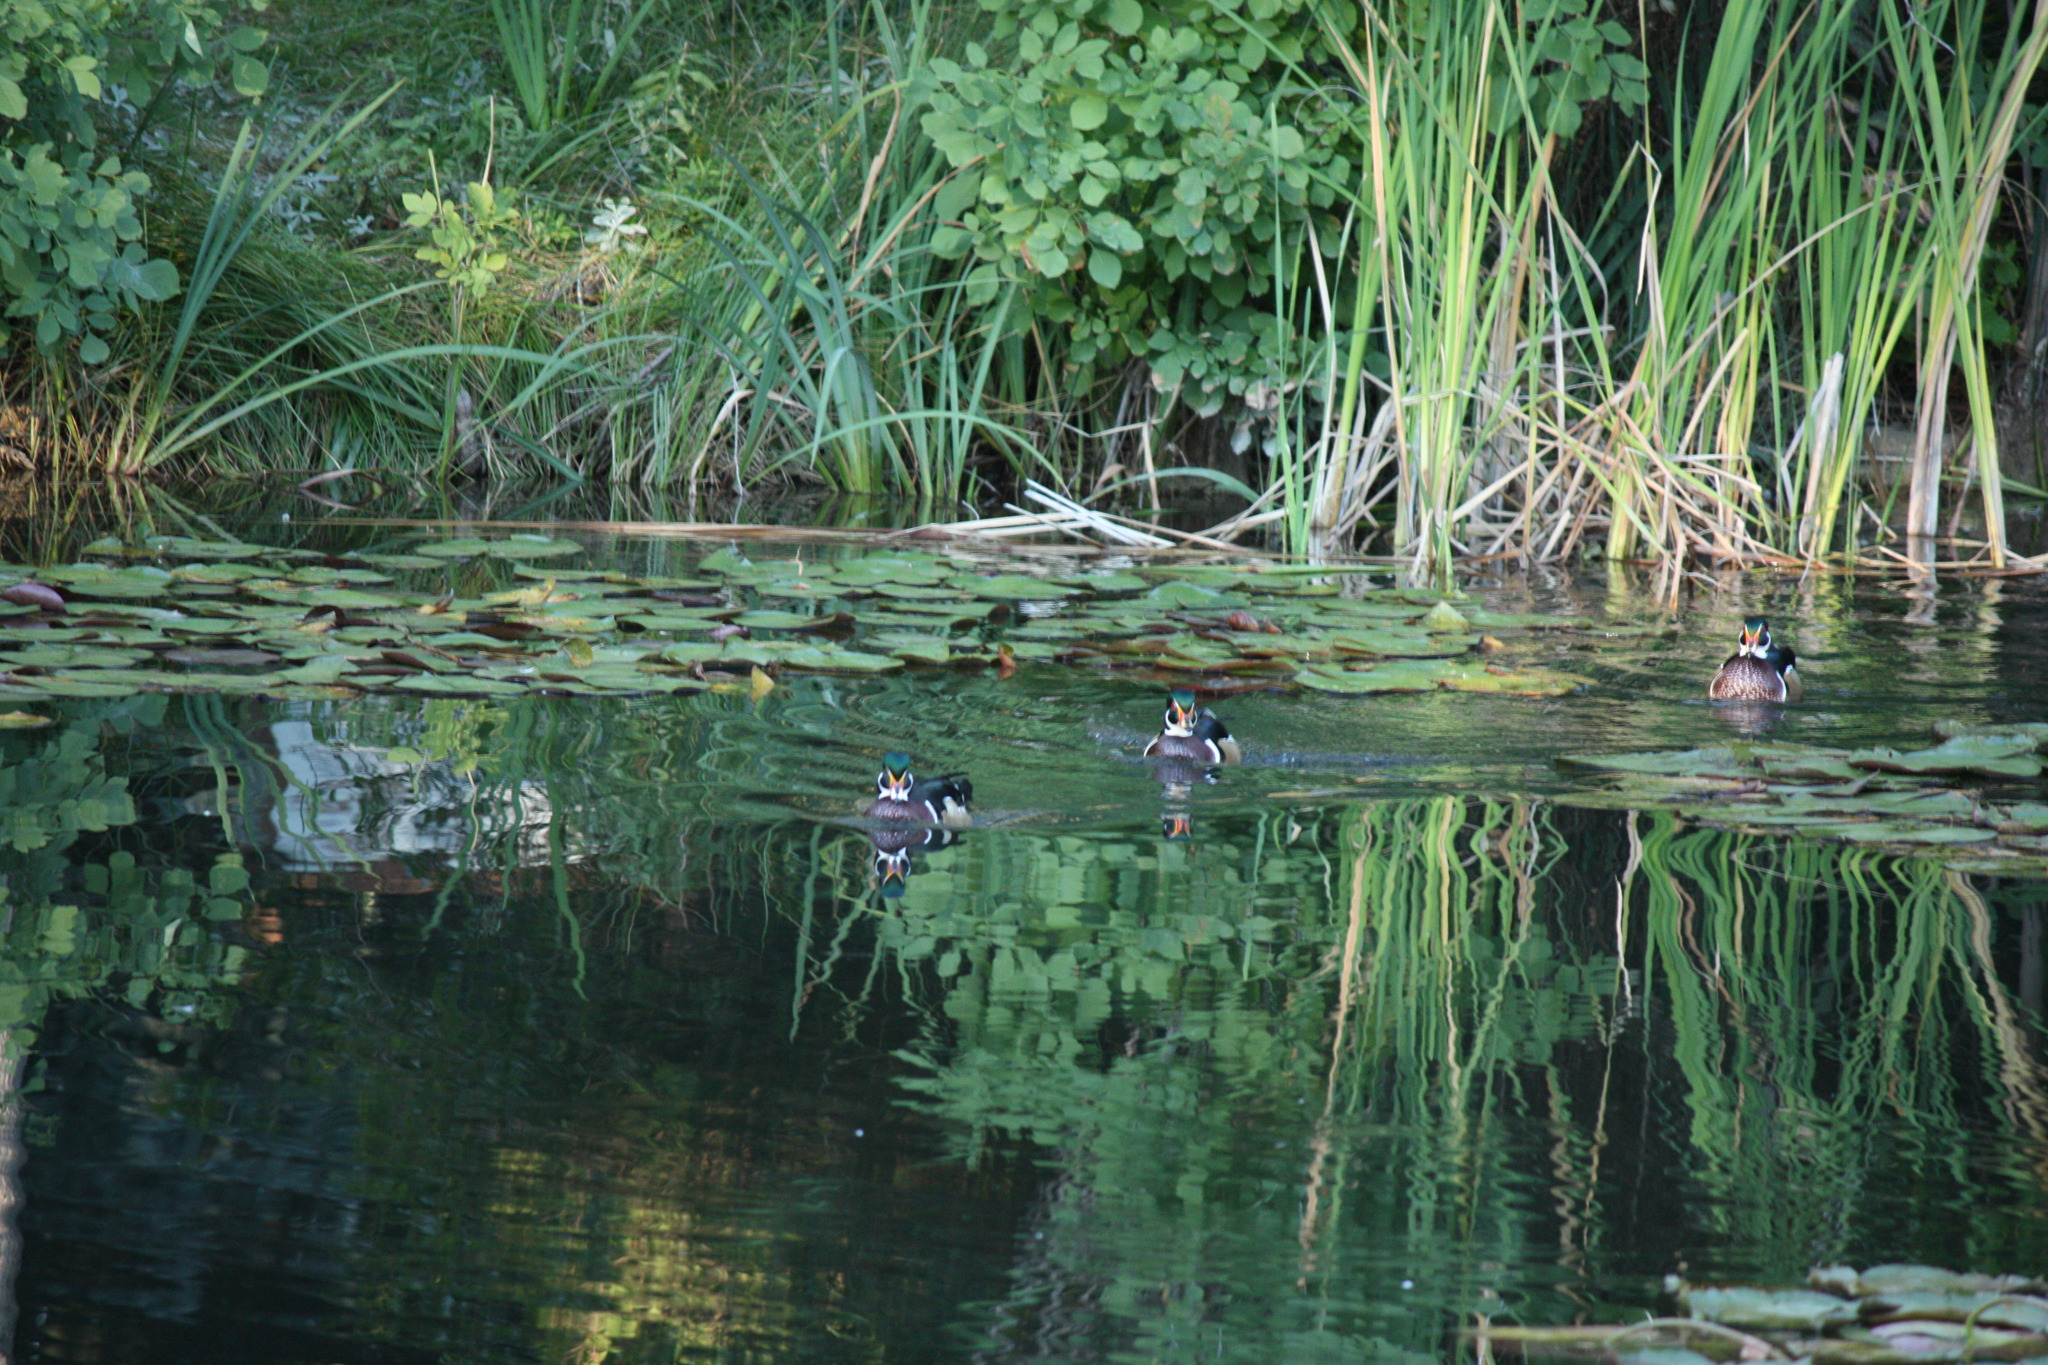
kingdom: Animalia
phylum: Chordata
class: Aves
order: Anseriformes
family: Anatidae
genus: Aix
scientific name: Aix sponsa
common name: Wood duck
